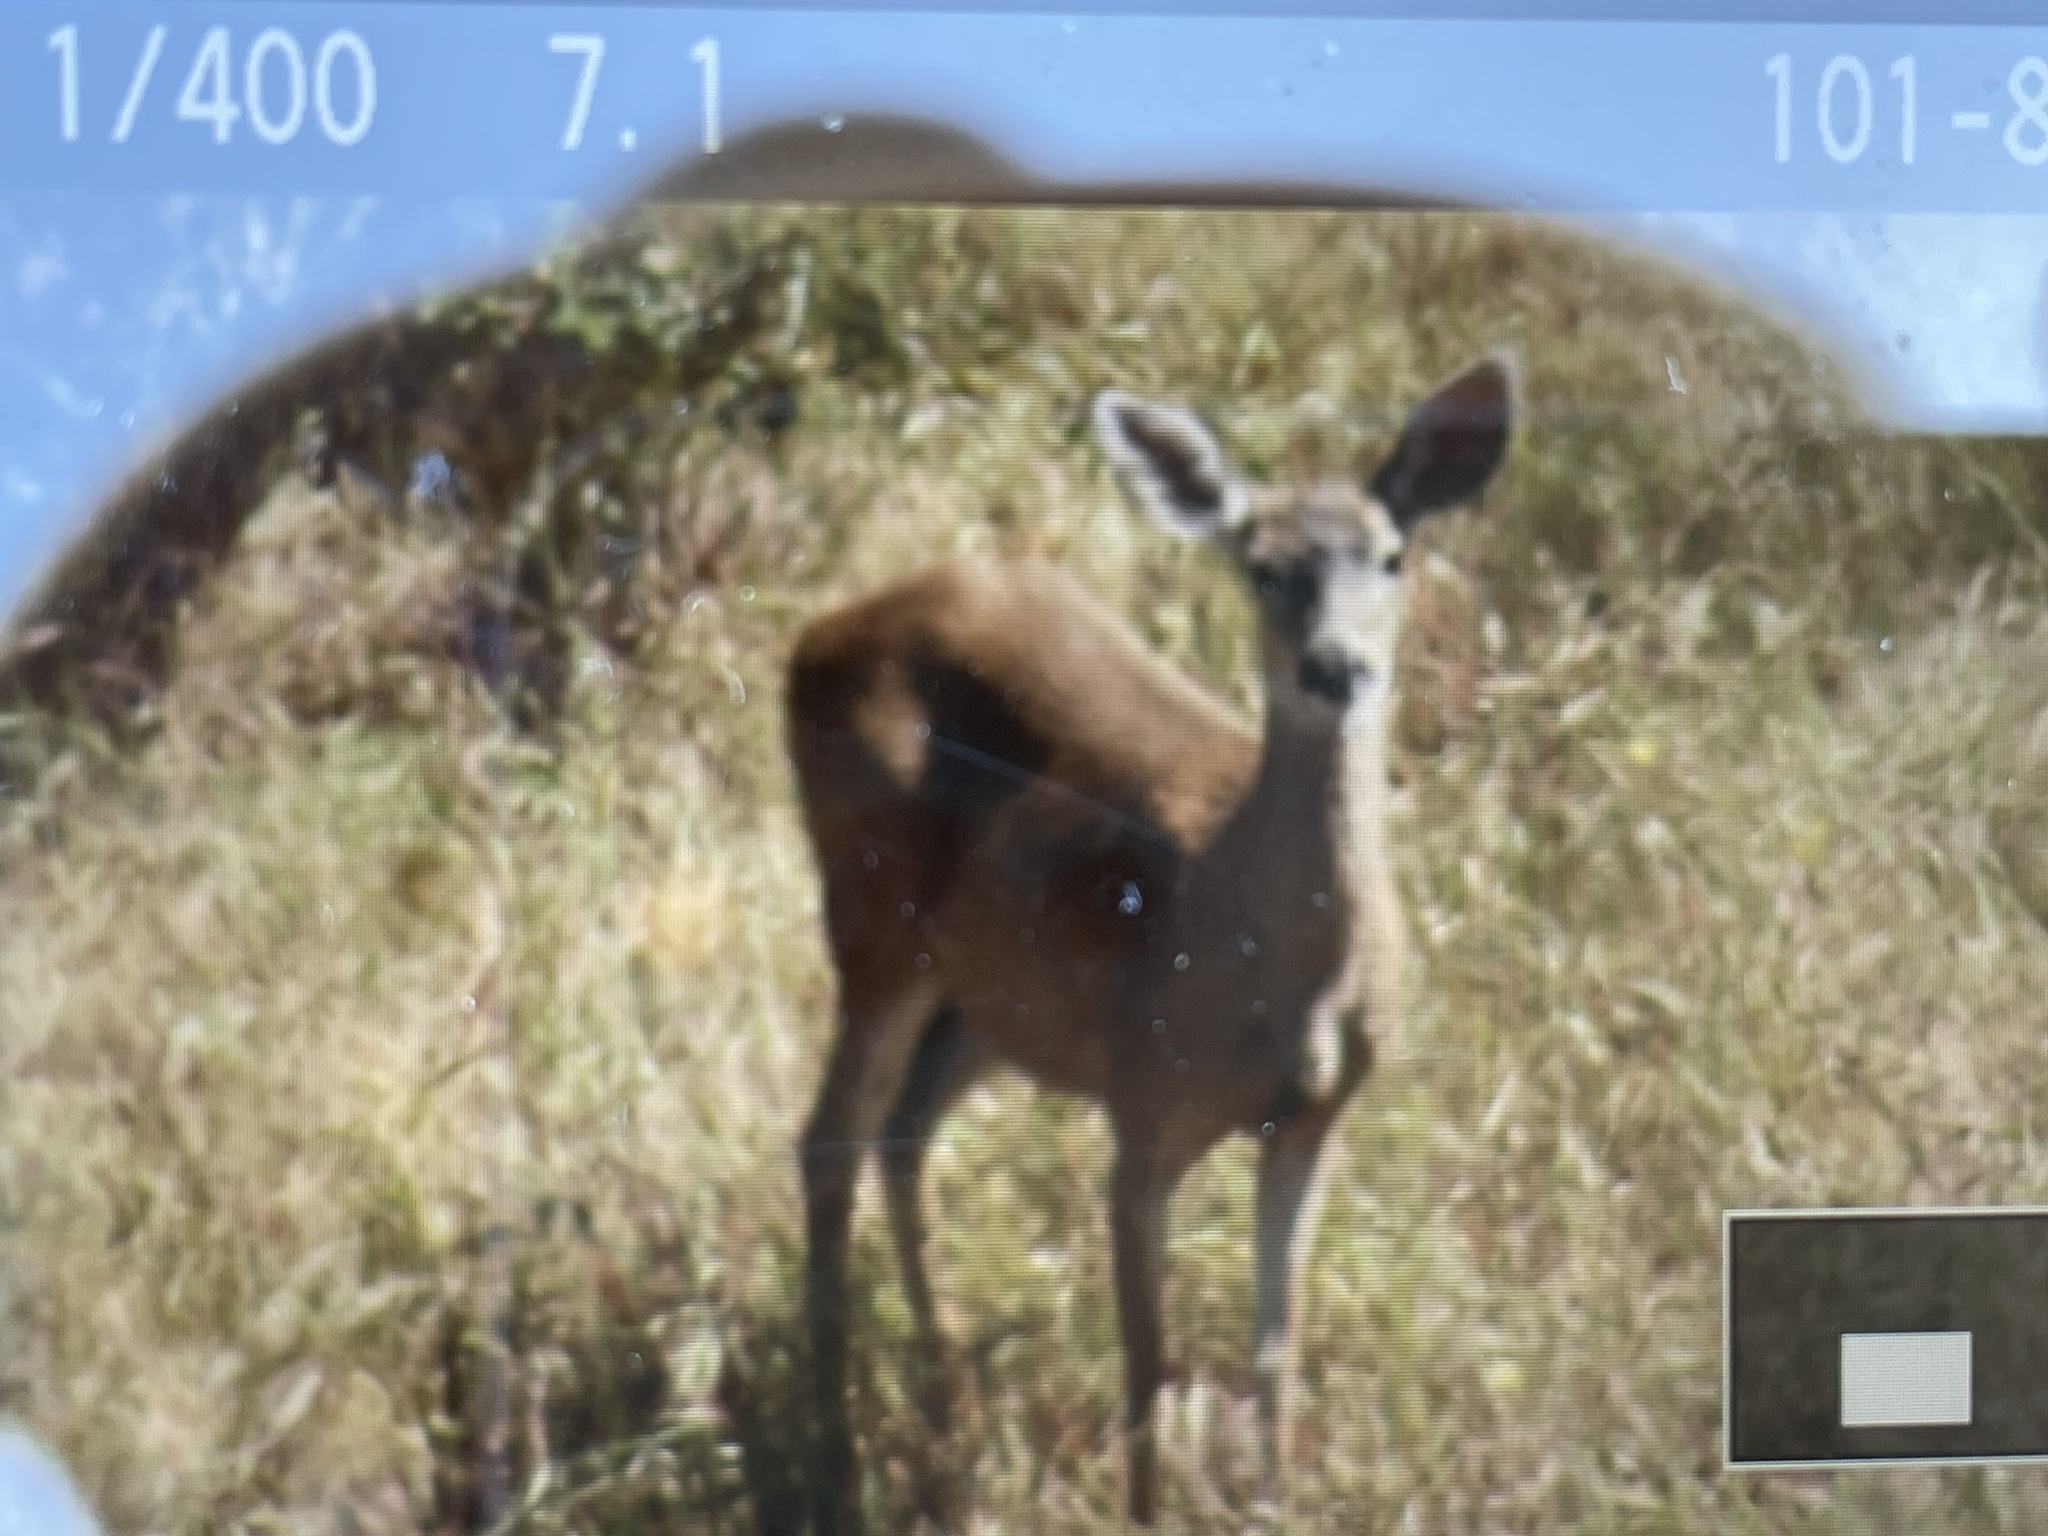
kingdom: Animalia
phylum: Chordata
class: Mammalia
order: Artiodactyla
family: Cervidae
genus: Odocoileus
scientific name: Odocoileus hemionus
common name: Mule deer
